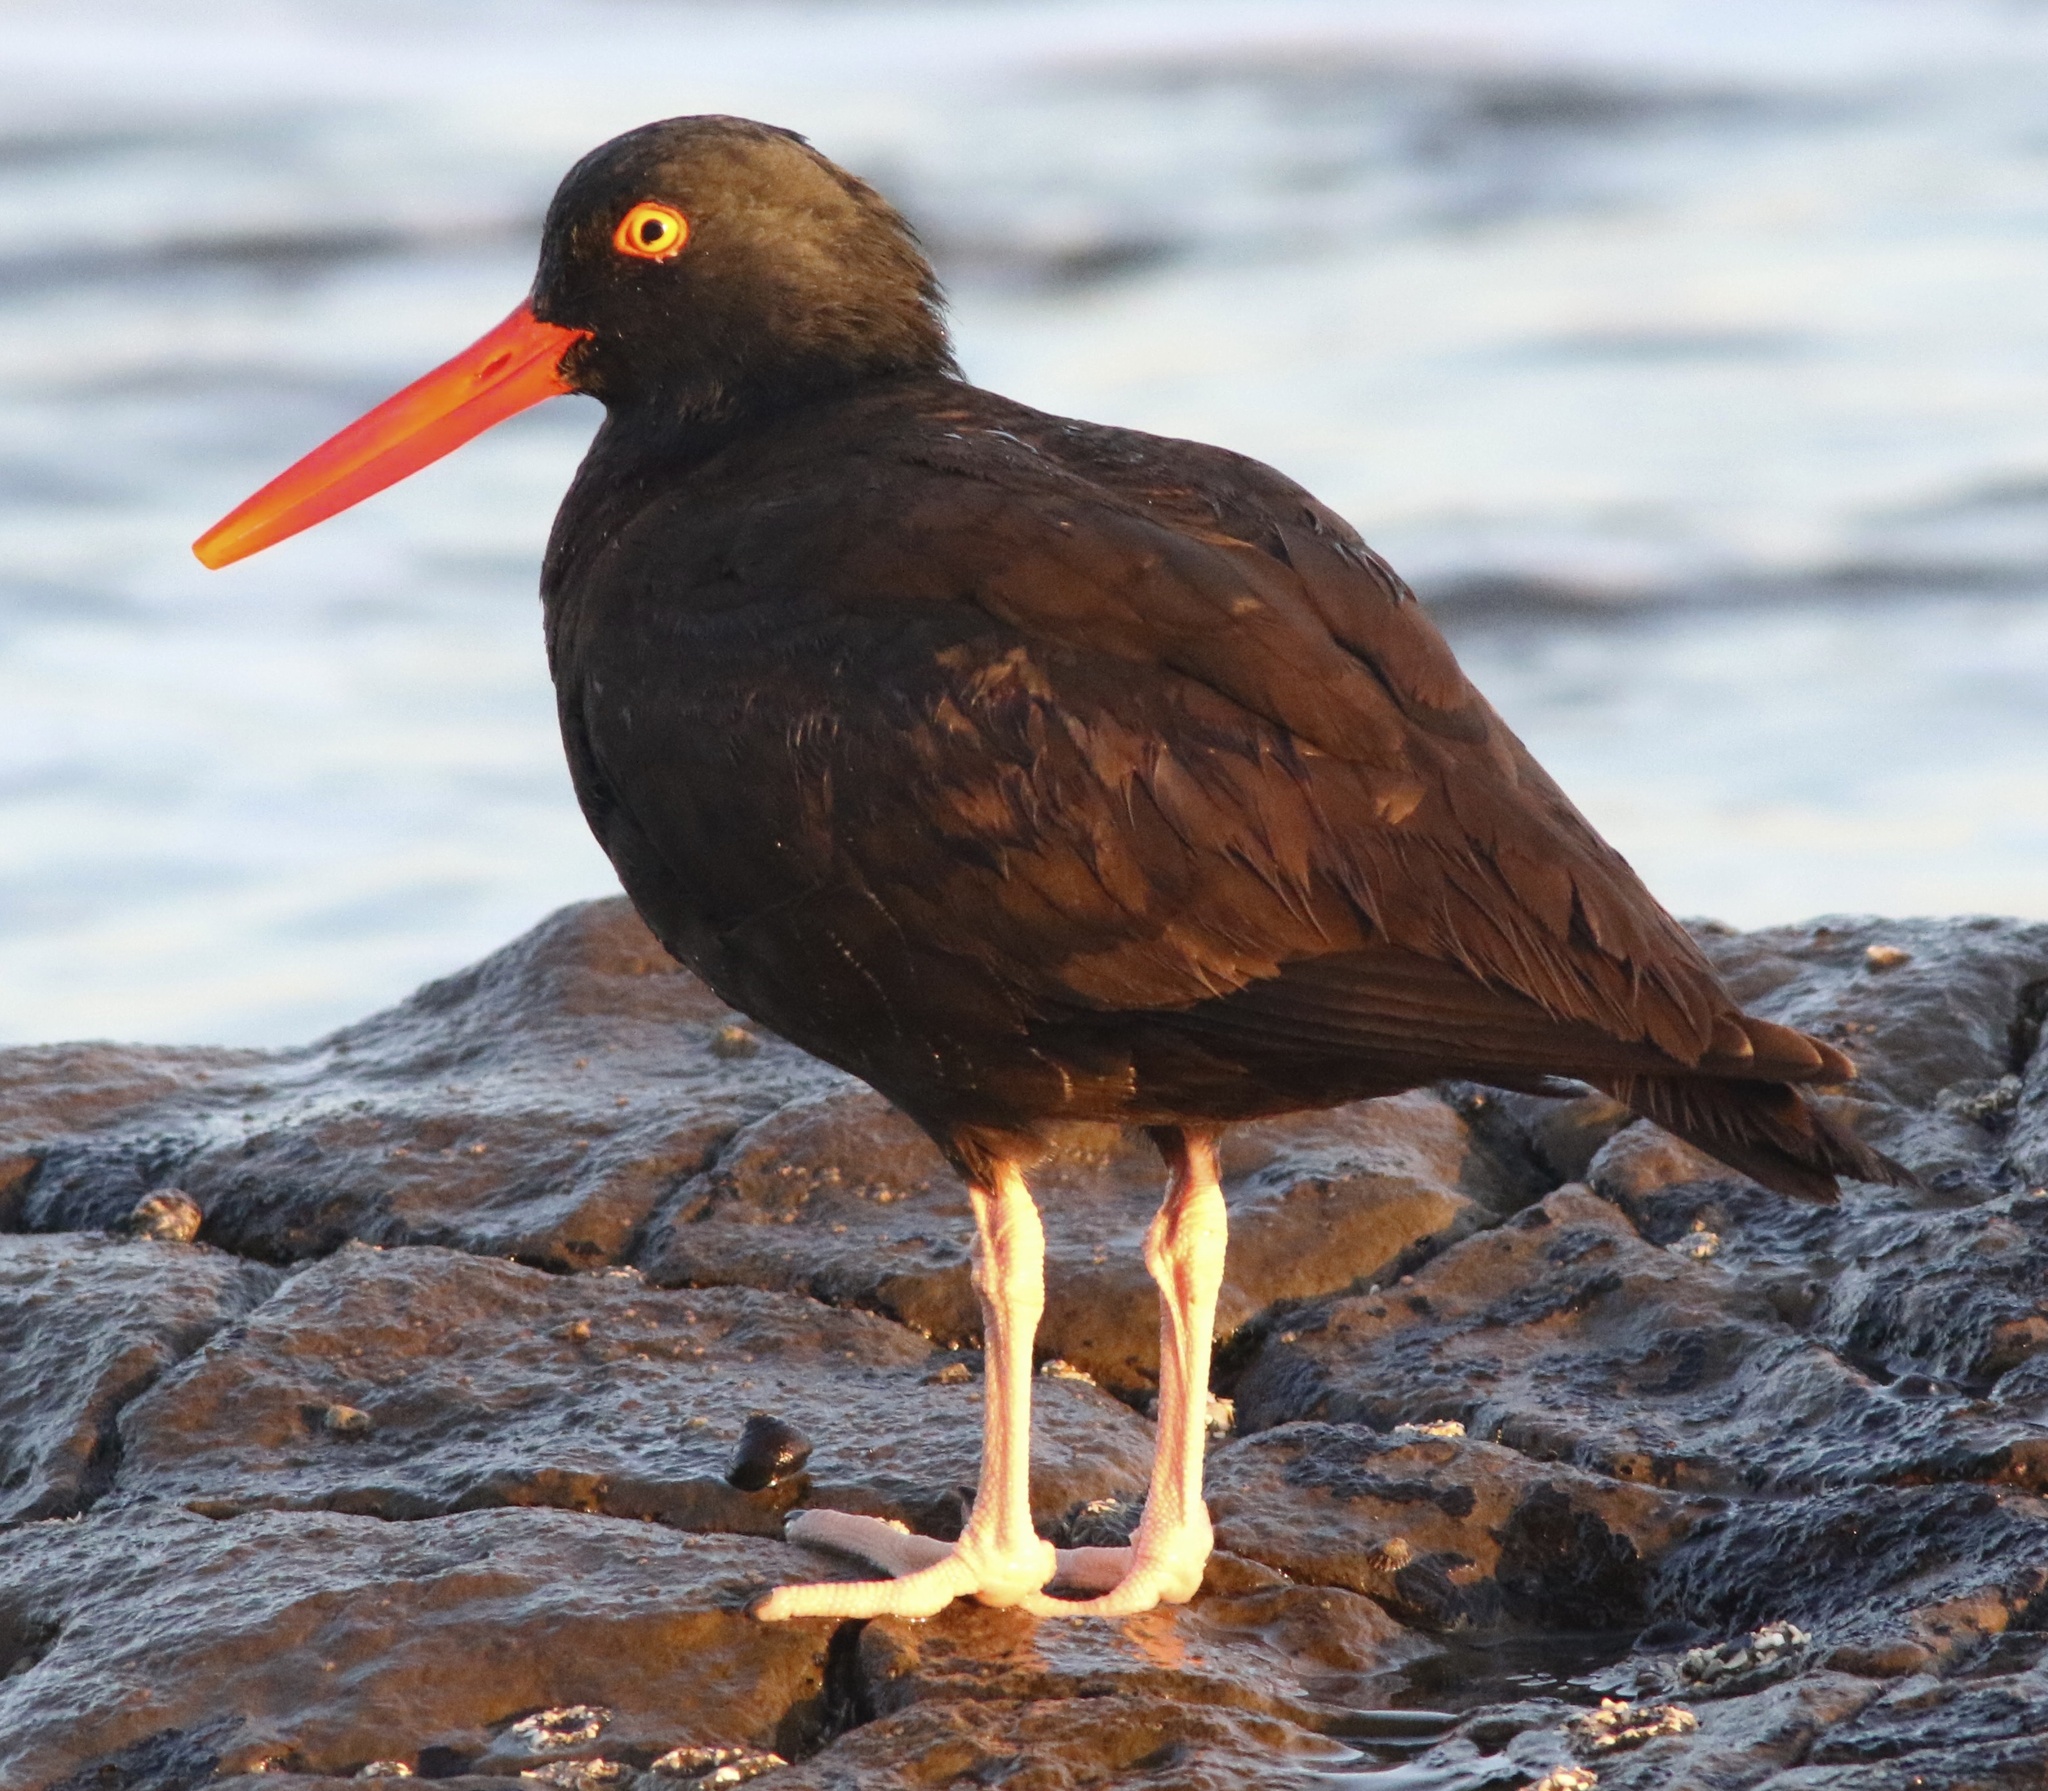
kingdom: Animalia
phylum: Chordata
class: Aves
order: Charadriiformes
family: Haematopodidae
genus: Haematopus
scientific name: Haematopus bachmani
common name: Black oystercatcher
